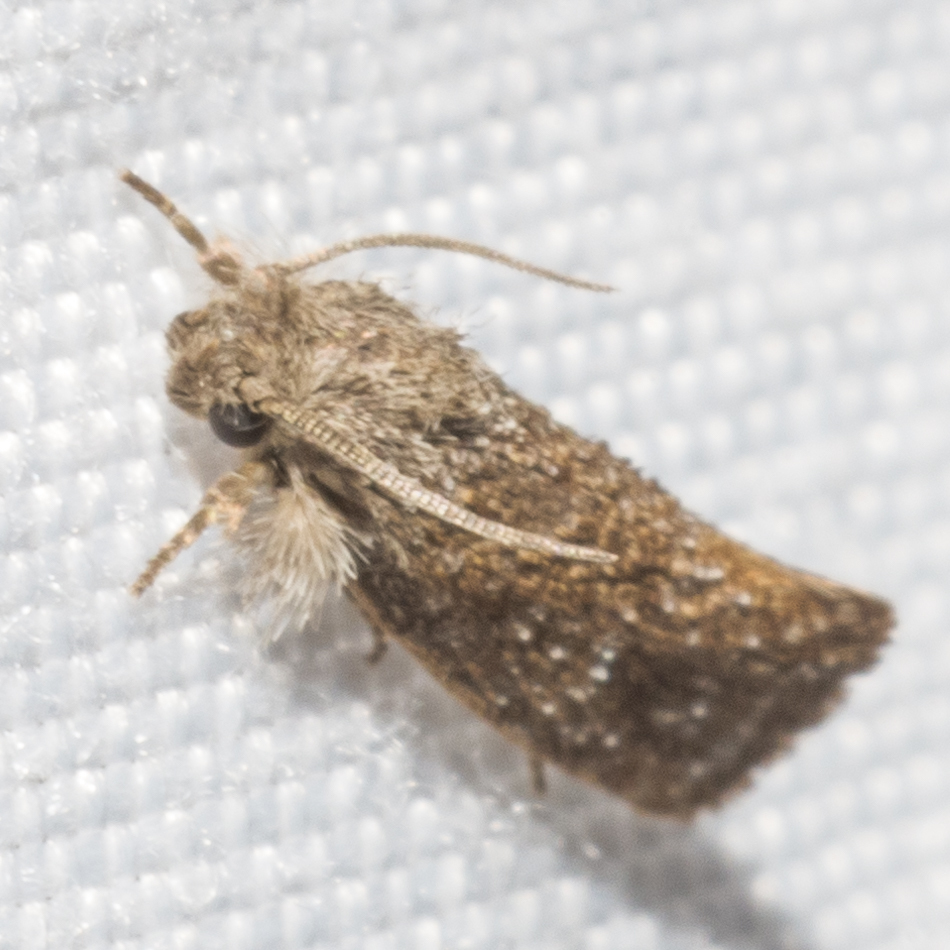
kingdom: Animalia
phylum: Arthropoda
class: Insecta
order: Lepidoptera
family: Tineidae
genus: Acrolophus
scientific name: Acrolophus heppneri
